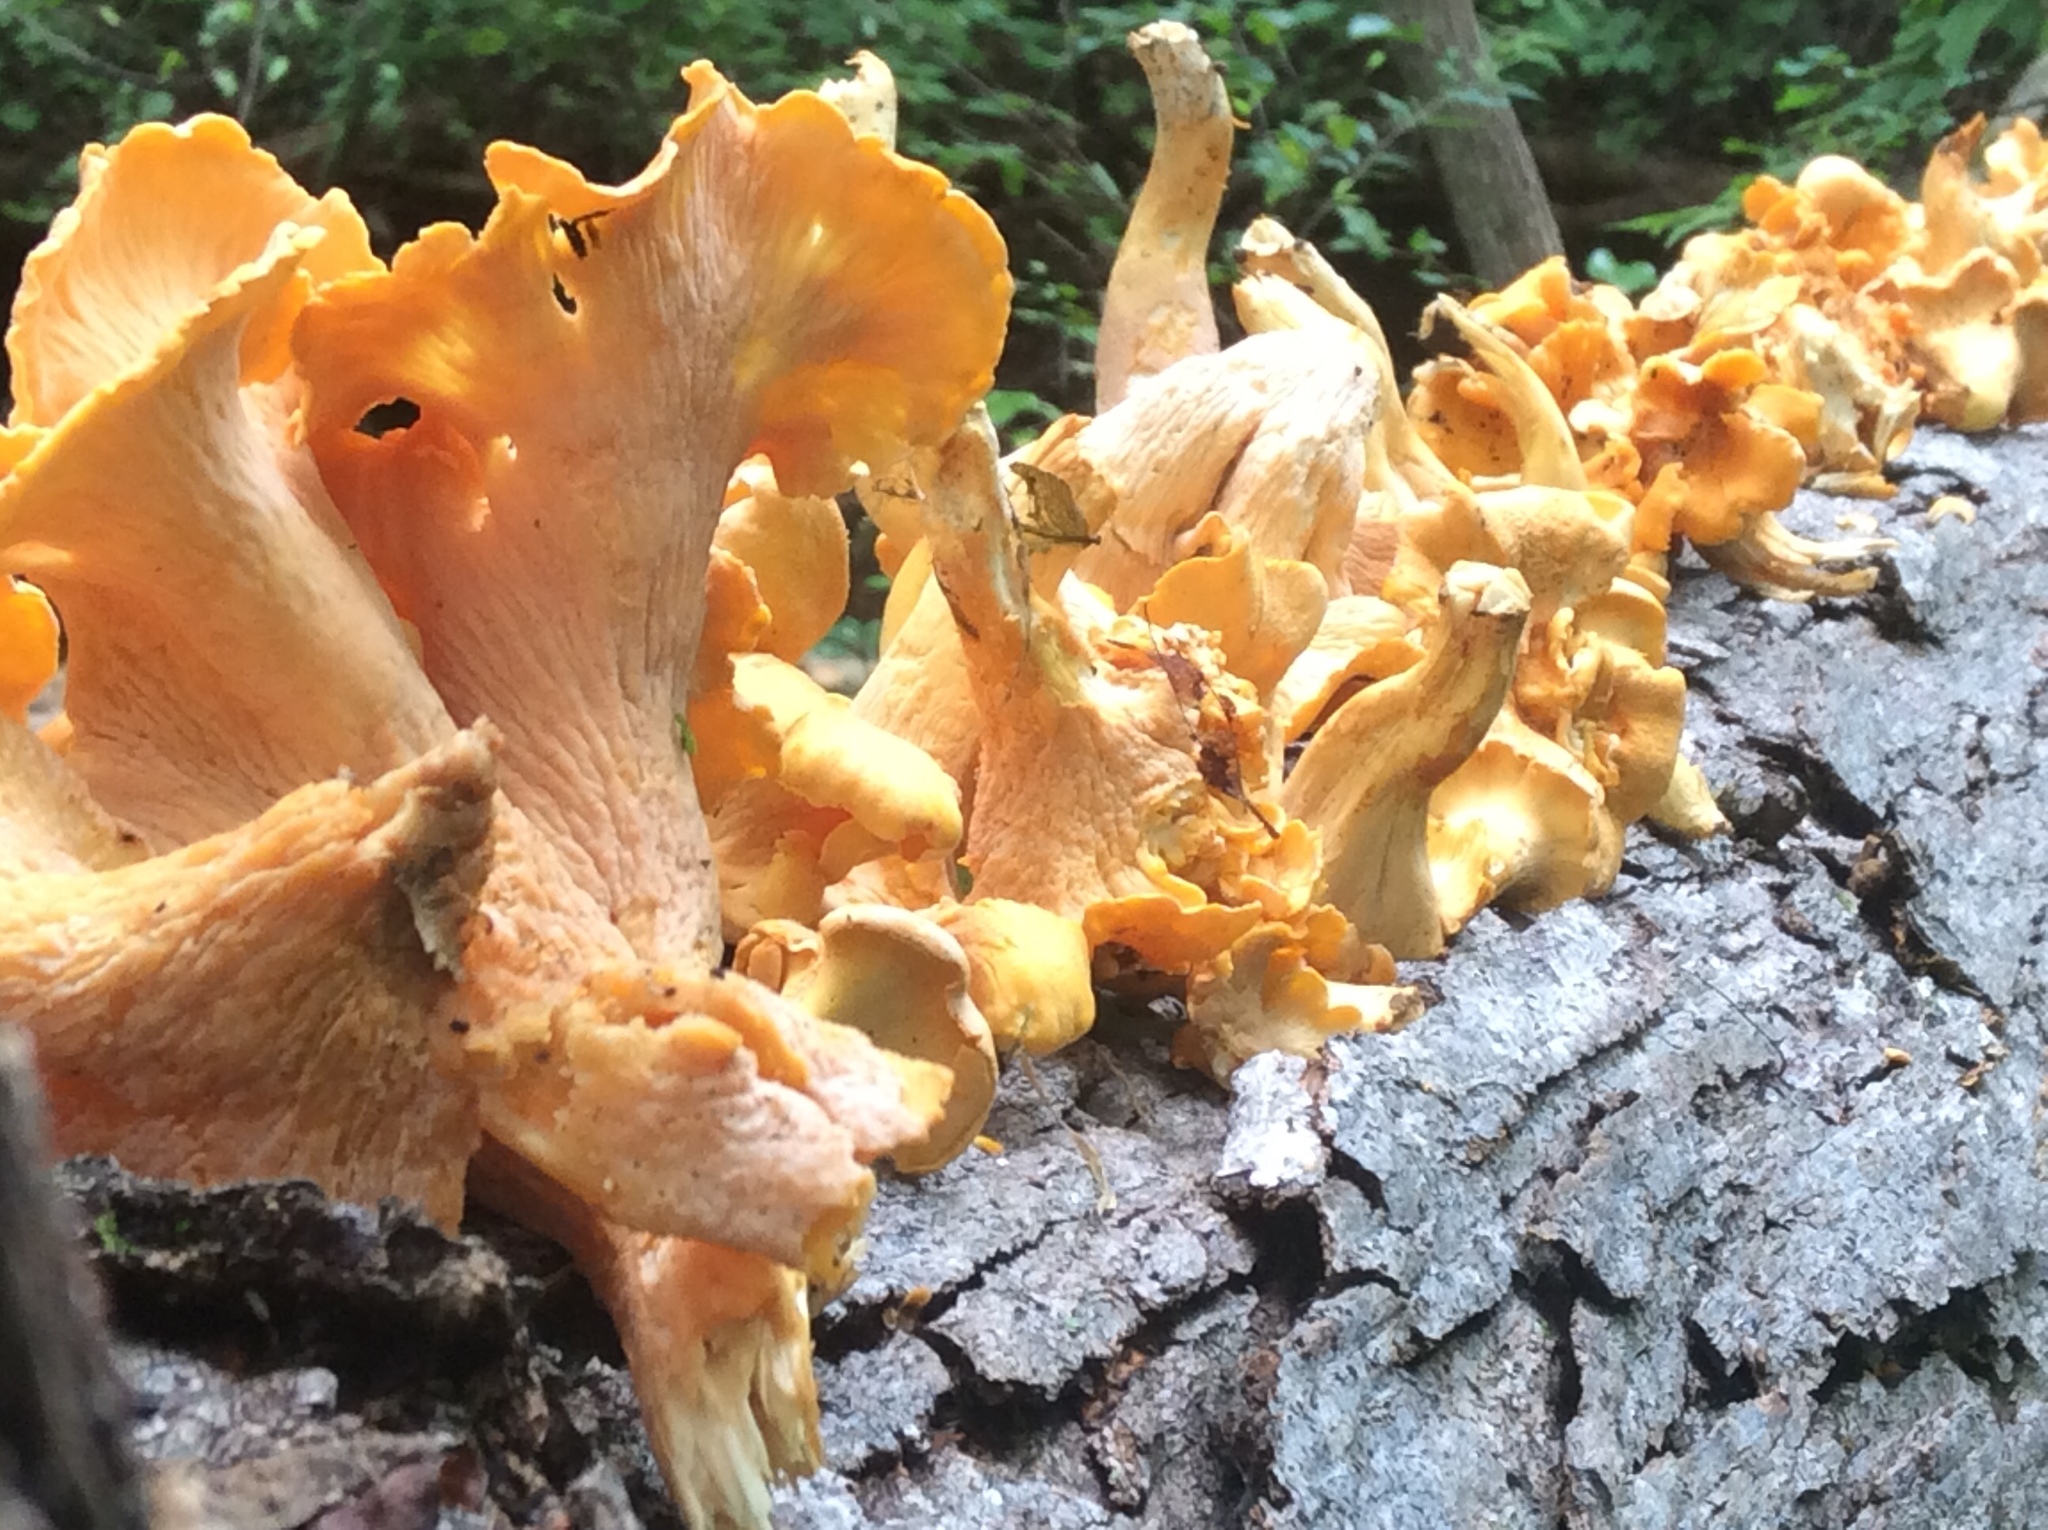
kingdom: Fungi
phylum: Basidiomycota
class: Agaricomycetes
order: Cantharellales
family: Hydnaceae
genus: Cantharellus
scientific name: Cantharellus lateritius
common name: Smooth chanterelle
